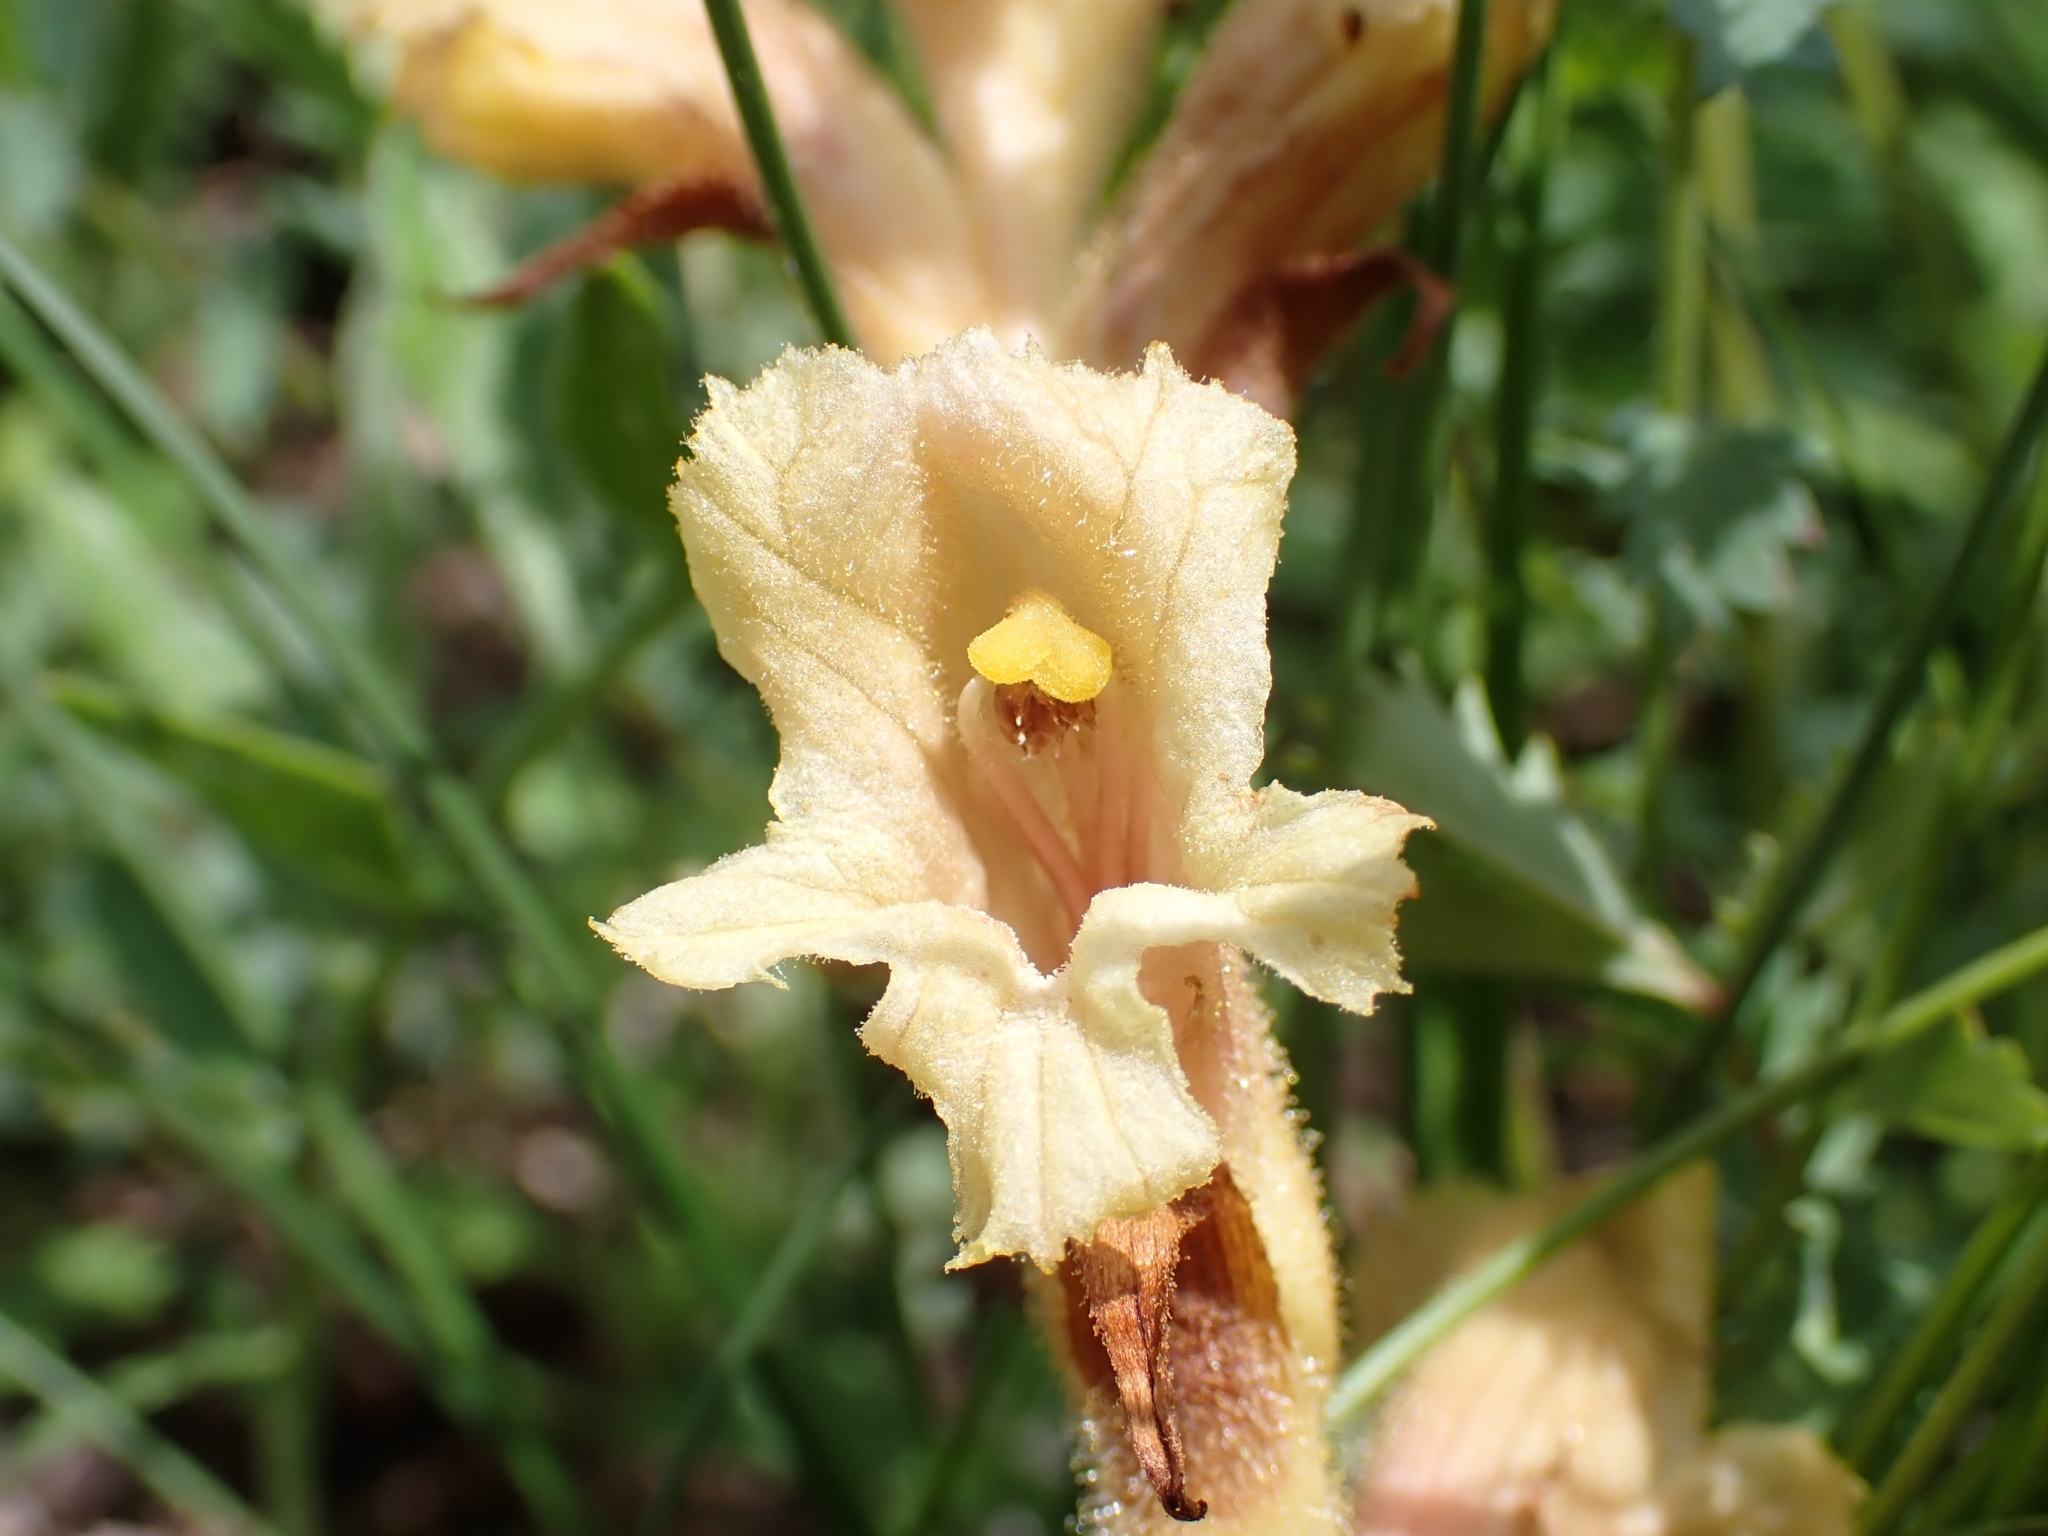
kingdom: Plantae
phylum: Tracheophyta
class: Magnoliopsida
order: Lamiales
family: Orobanchaceae
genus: Orobanche
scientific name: Orobanche teucrii
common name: Germander broomrape
